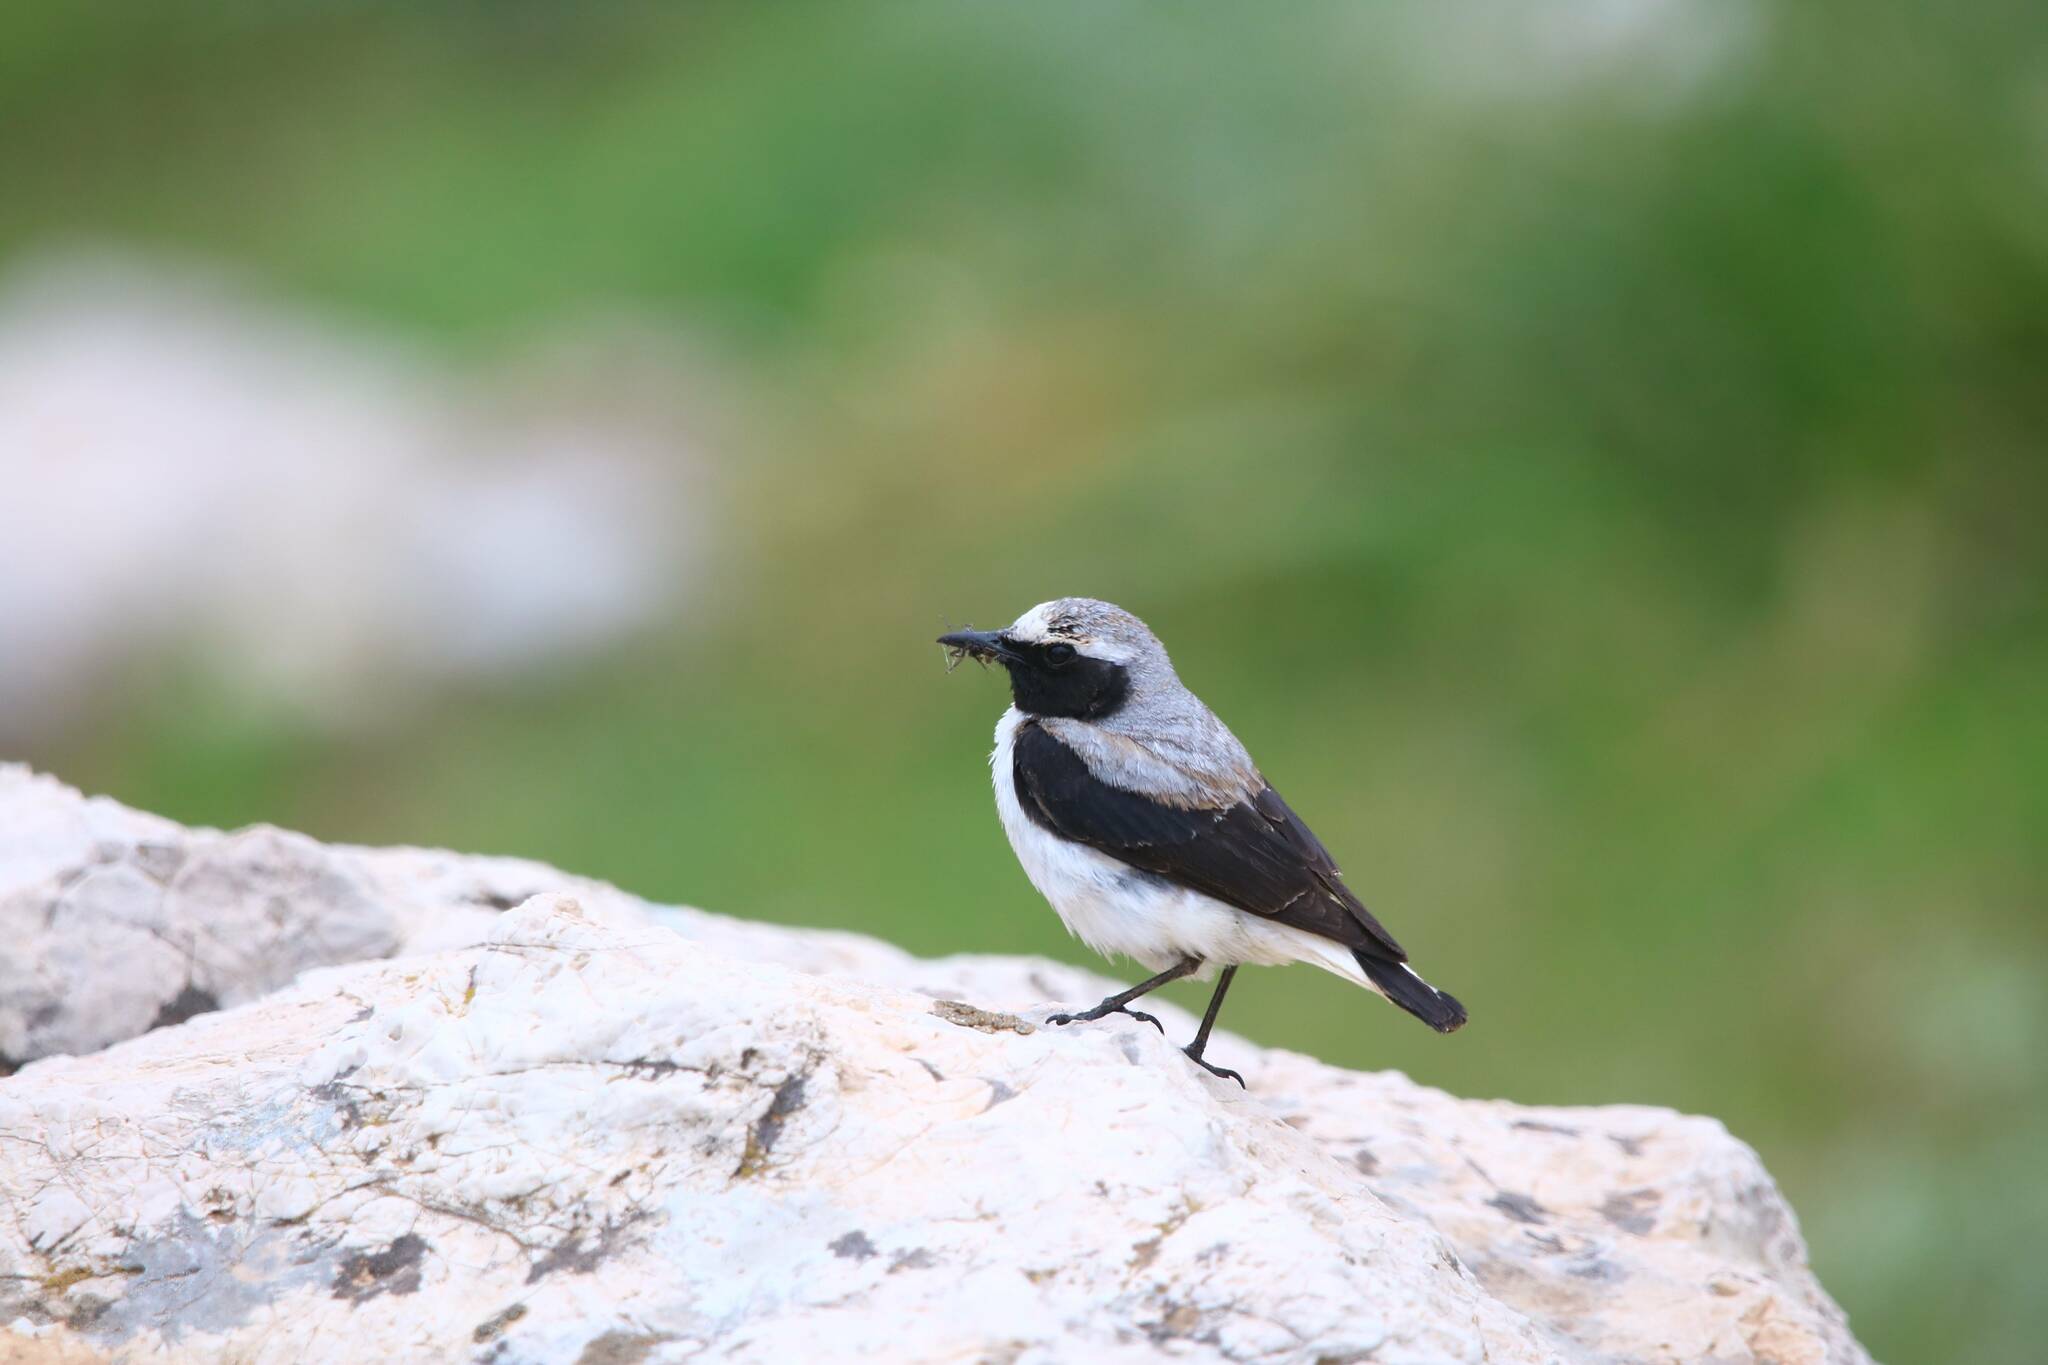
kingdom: Animalia
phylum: Chordata
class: Aves
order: Passeriformes
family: Muscicapidae
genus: Oenanthe
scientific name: Oenanthe oenanthe
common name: Northern wheatear
